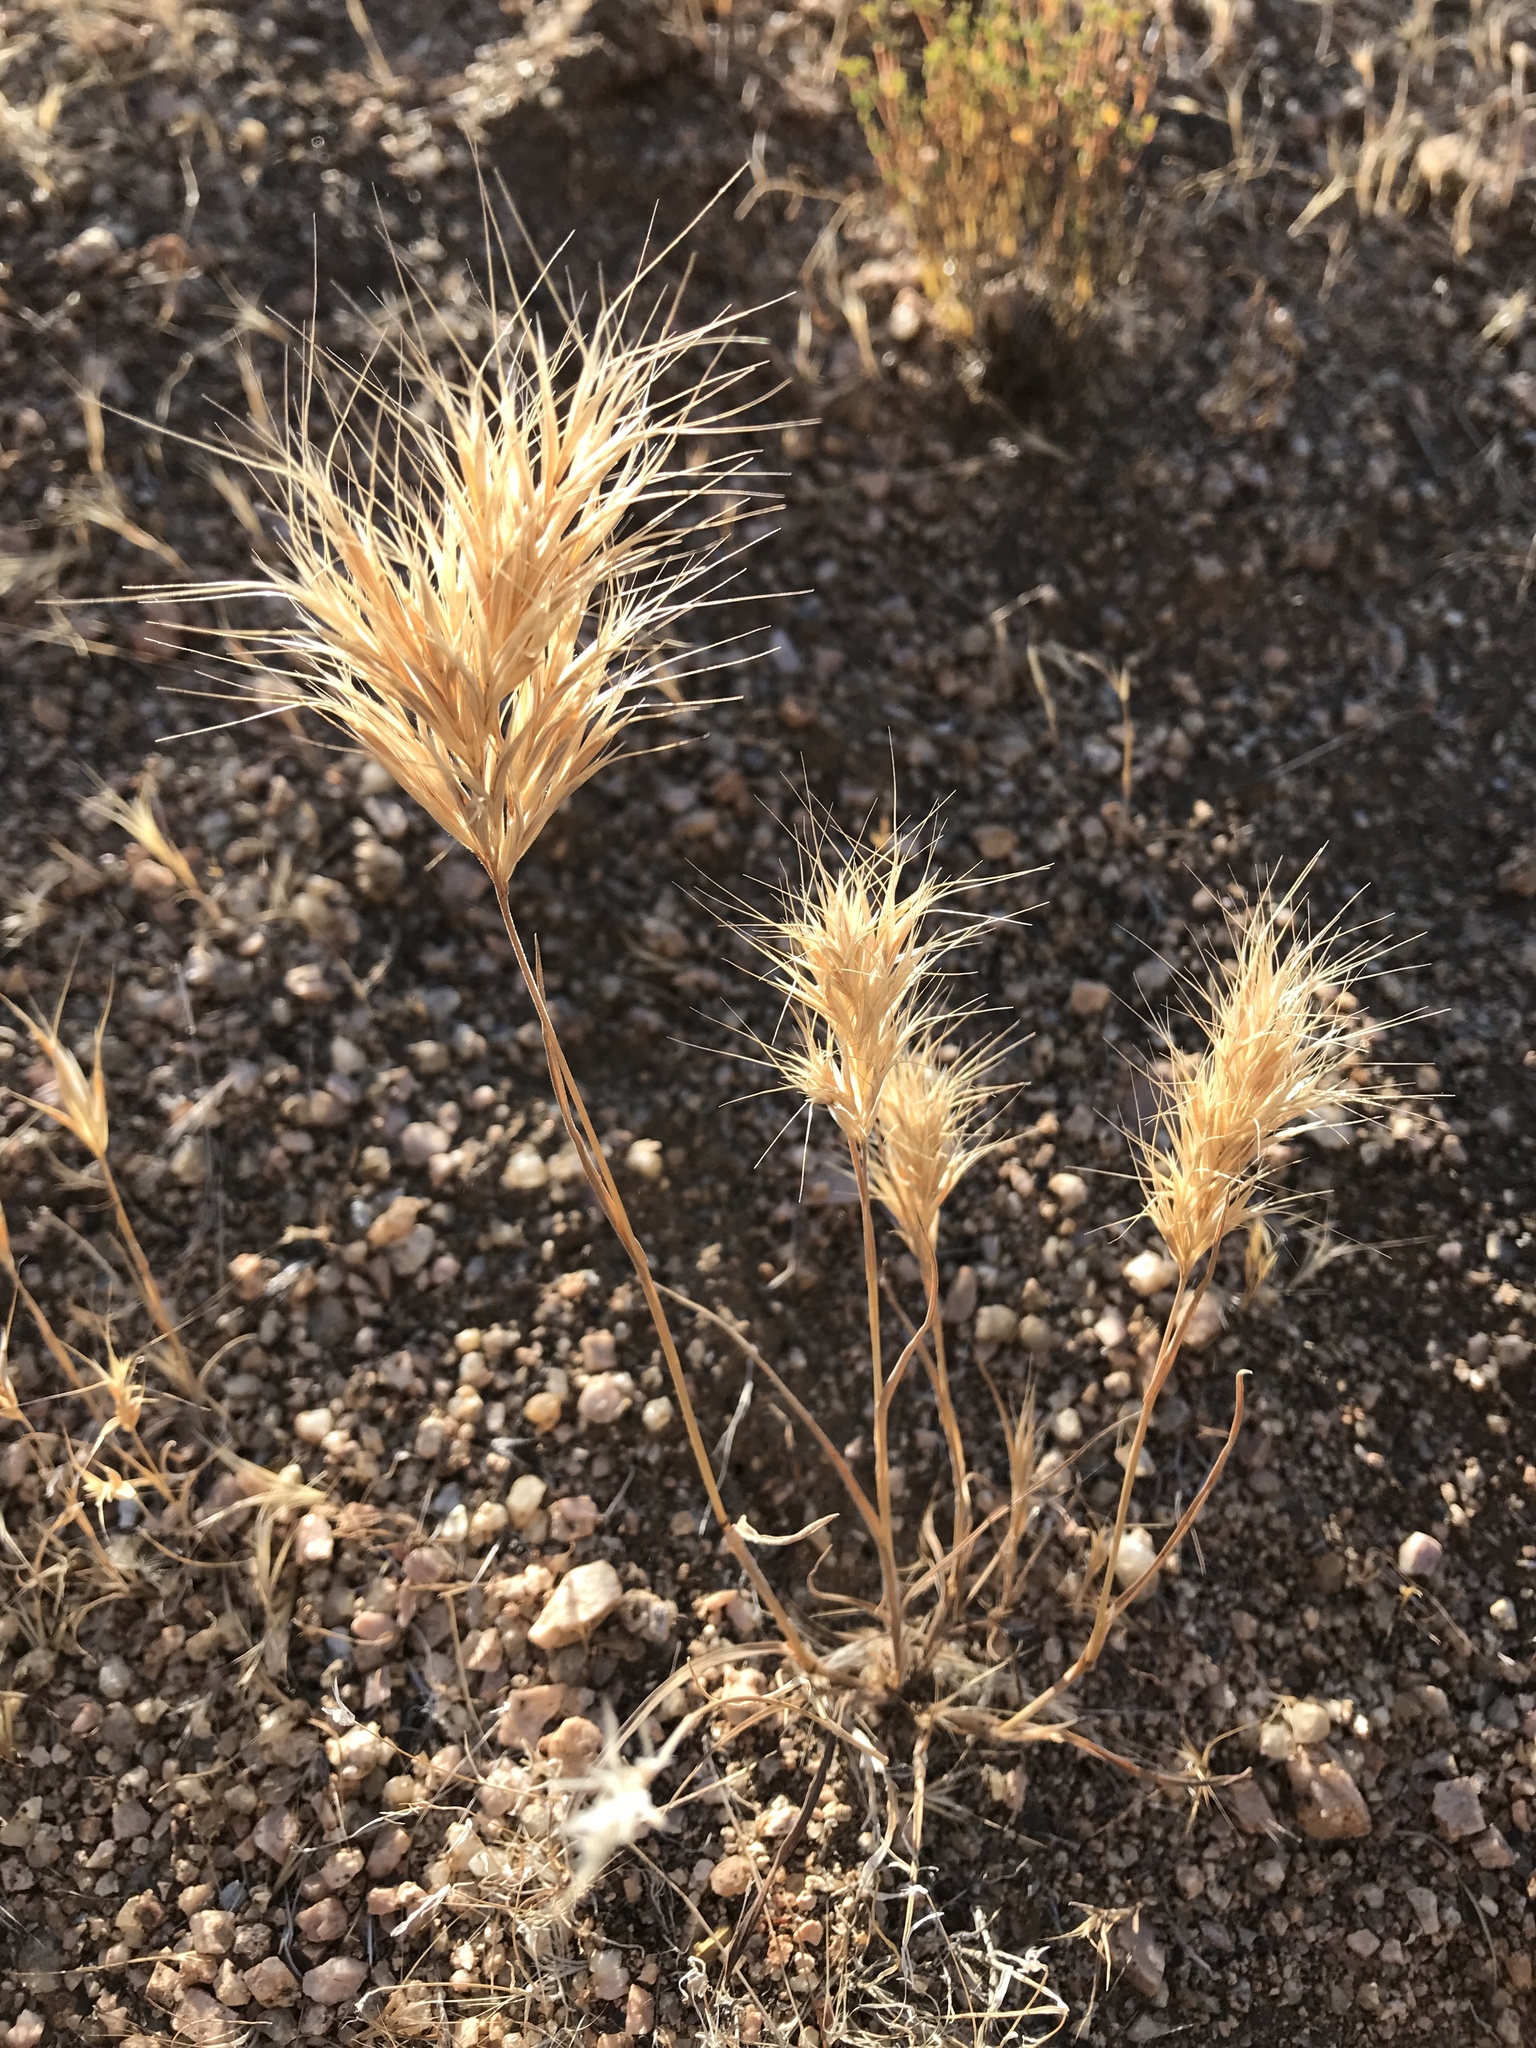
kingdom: Plantae
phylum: Tracheophyta
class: Liliopsida
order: Poales
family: Poaceae
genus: Bromus
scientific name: Bromus rubens
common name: Red brome
